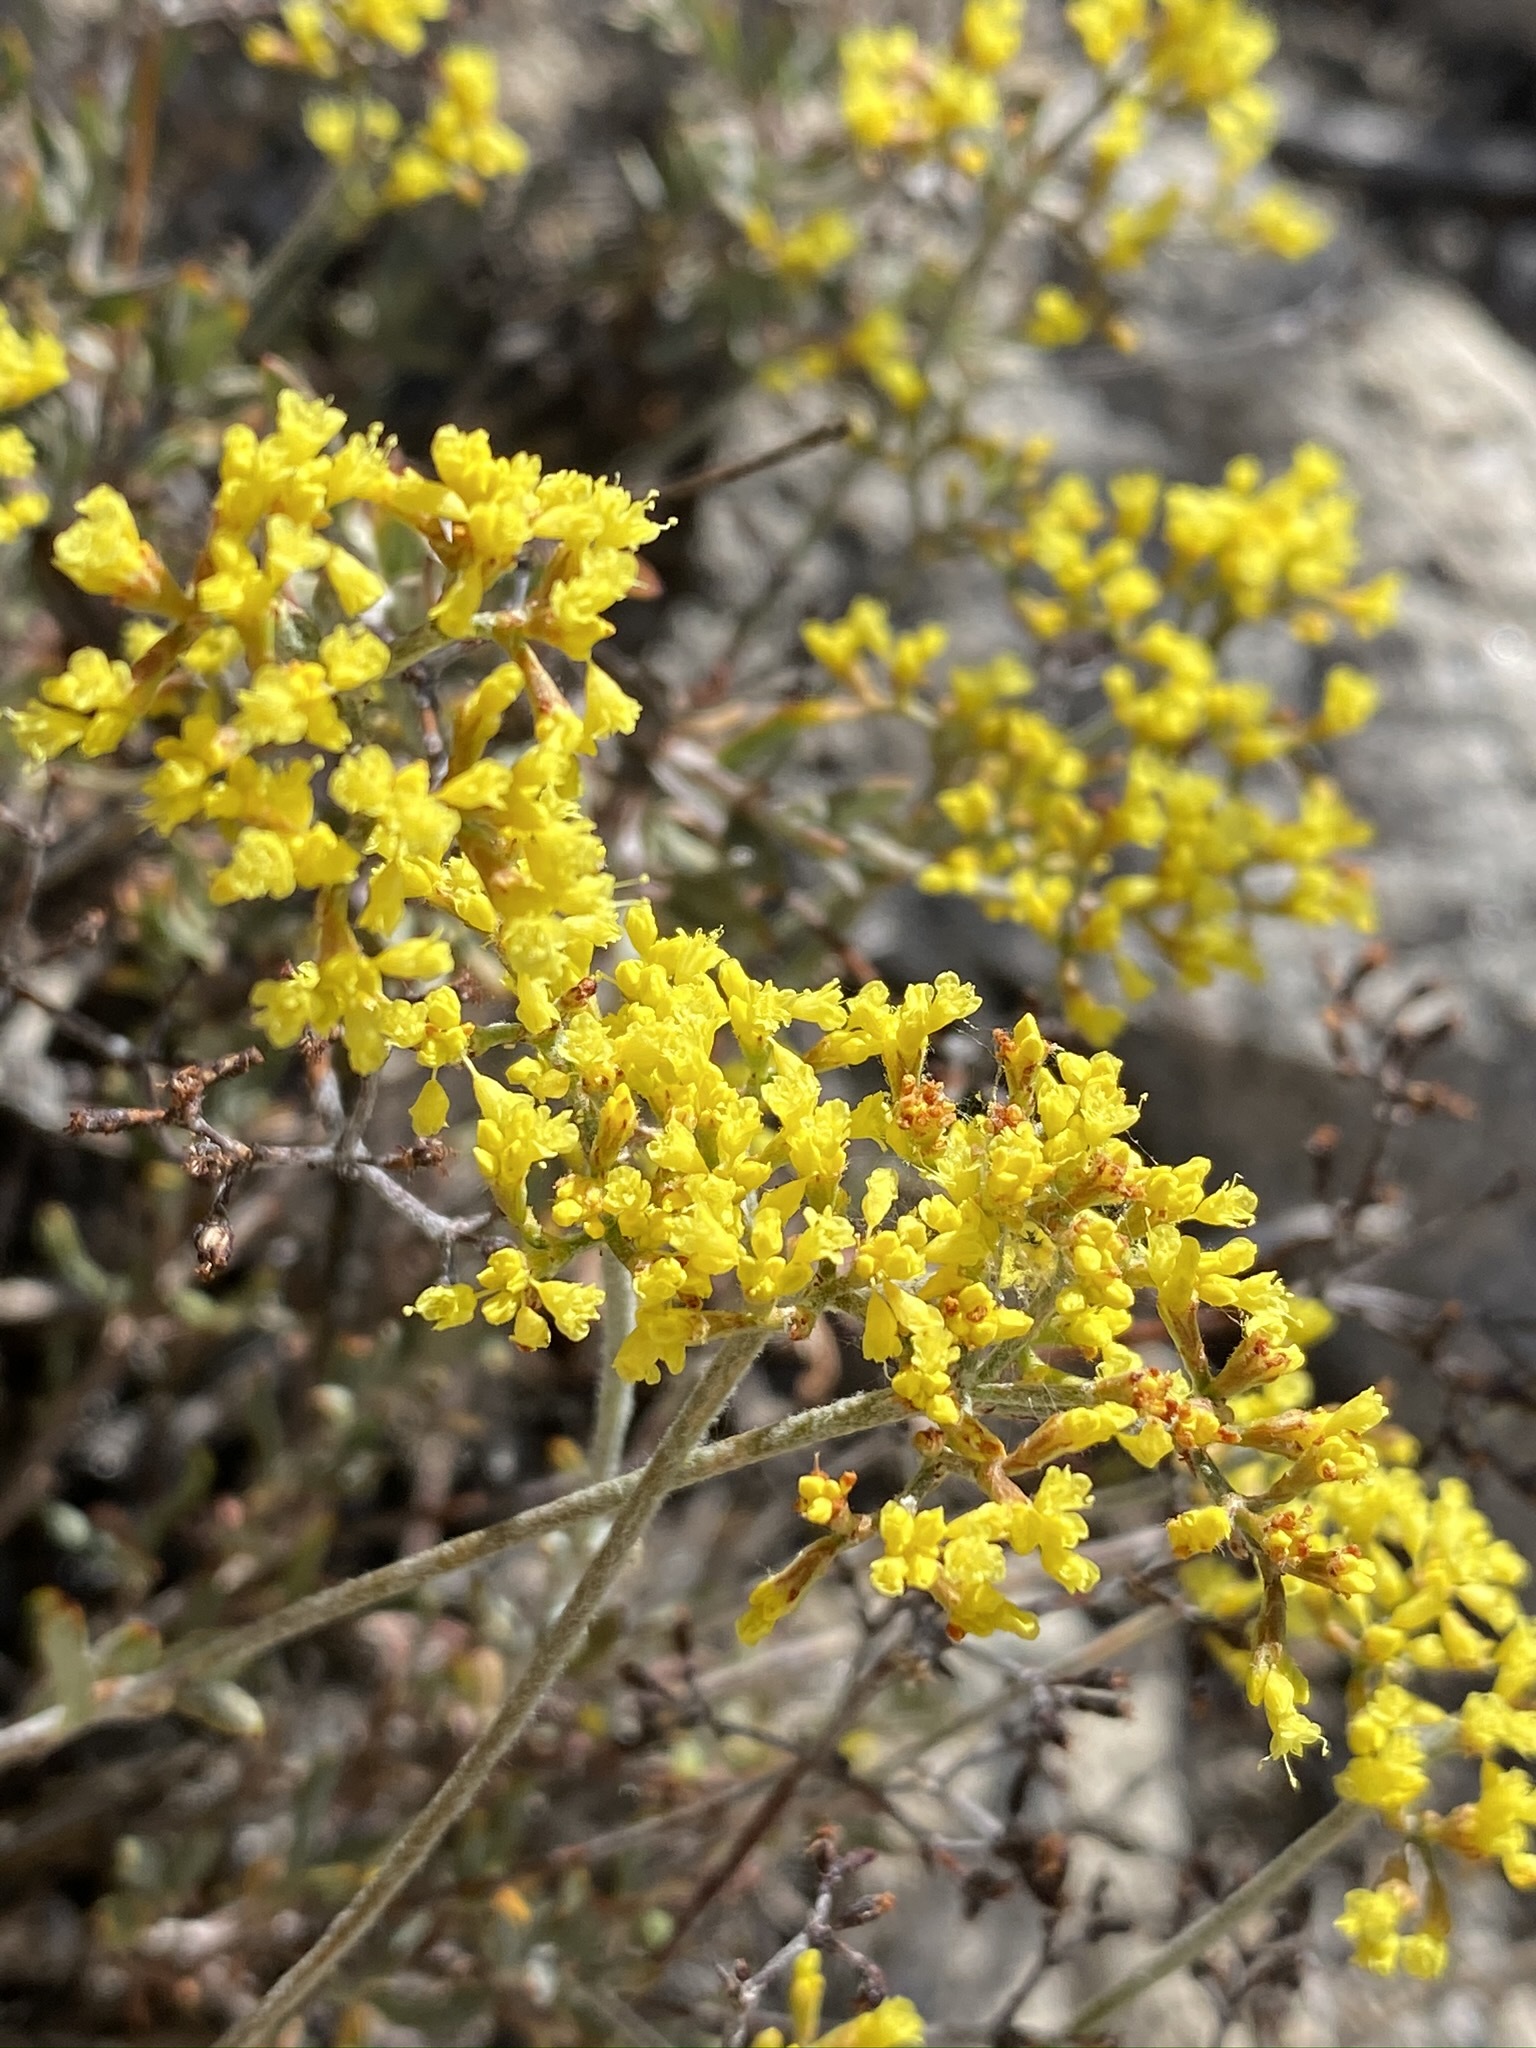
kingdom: Plantae
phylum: Tracheophyta
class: Magnoliopsida
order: Caryophyllales
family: Polygonaceae
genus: Eriogonum
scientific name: Eriogonum microtheca
